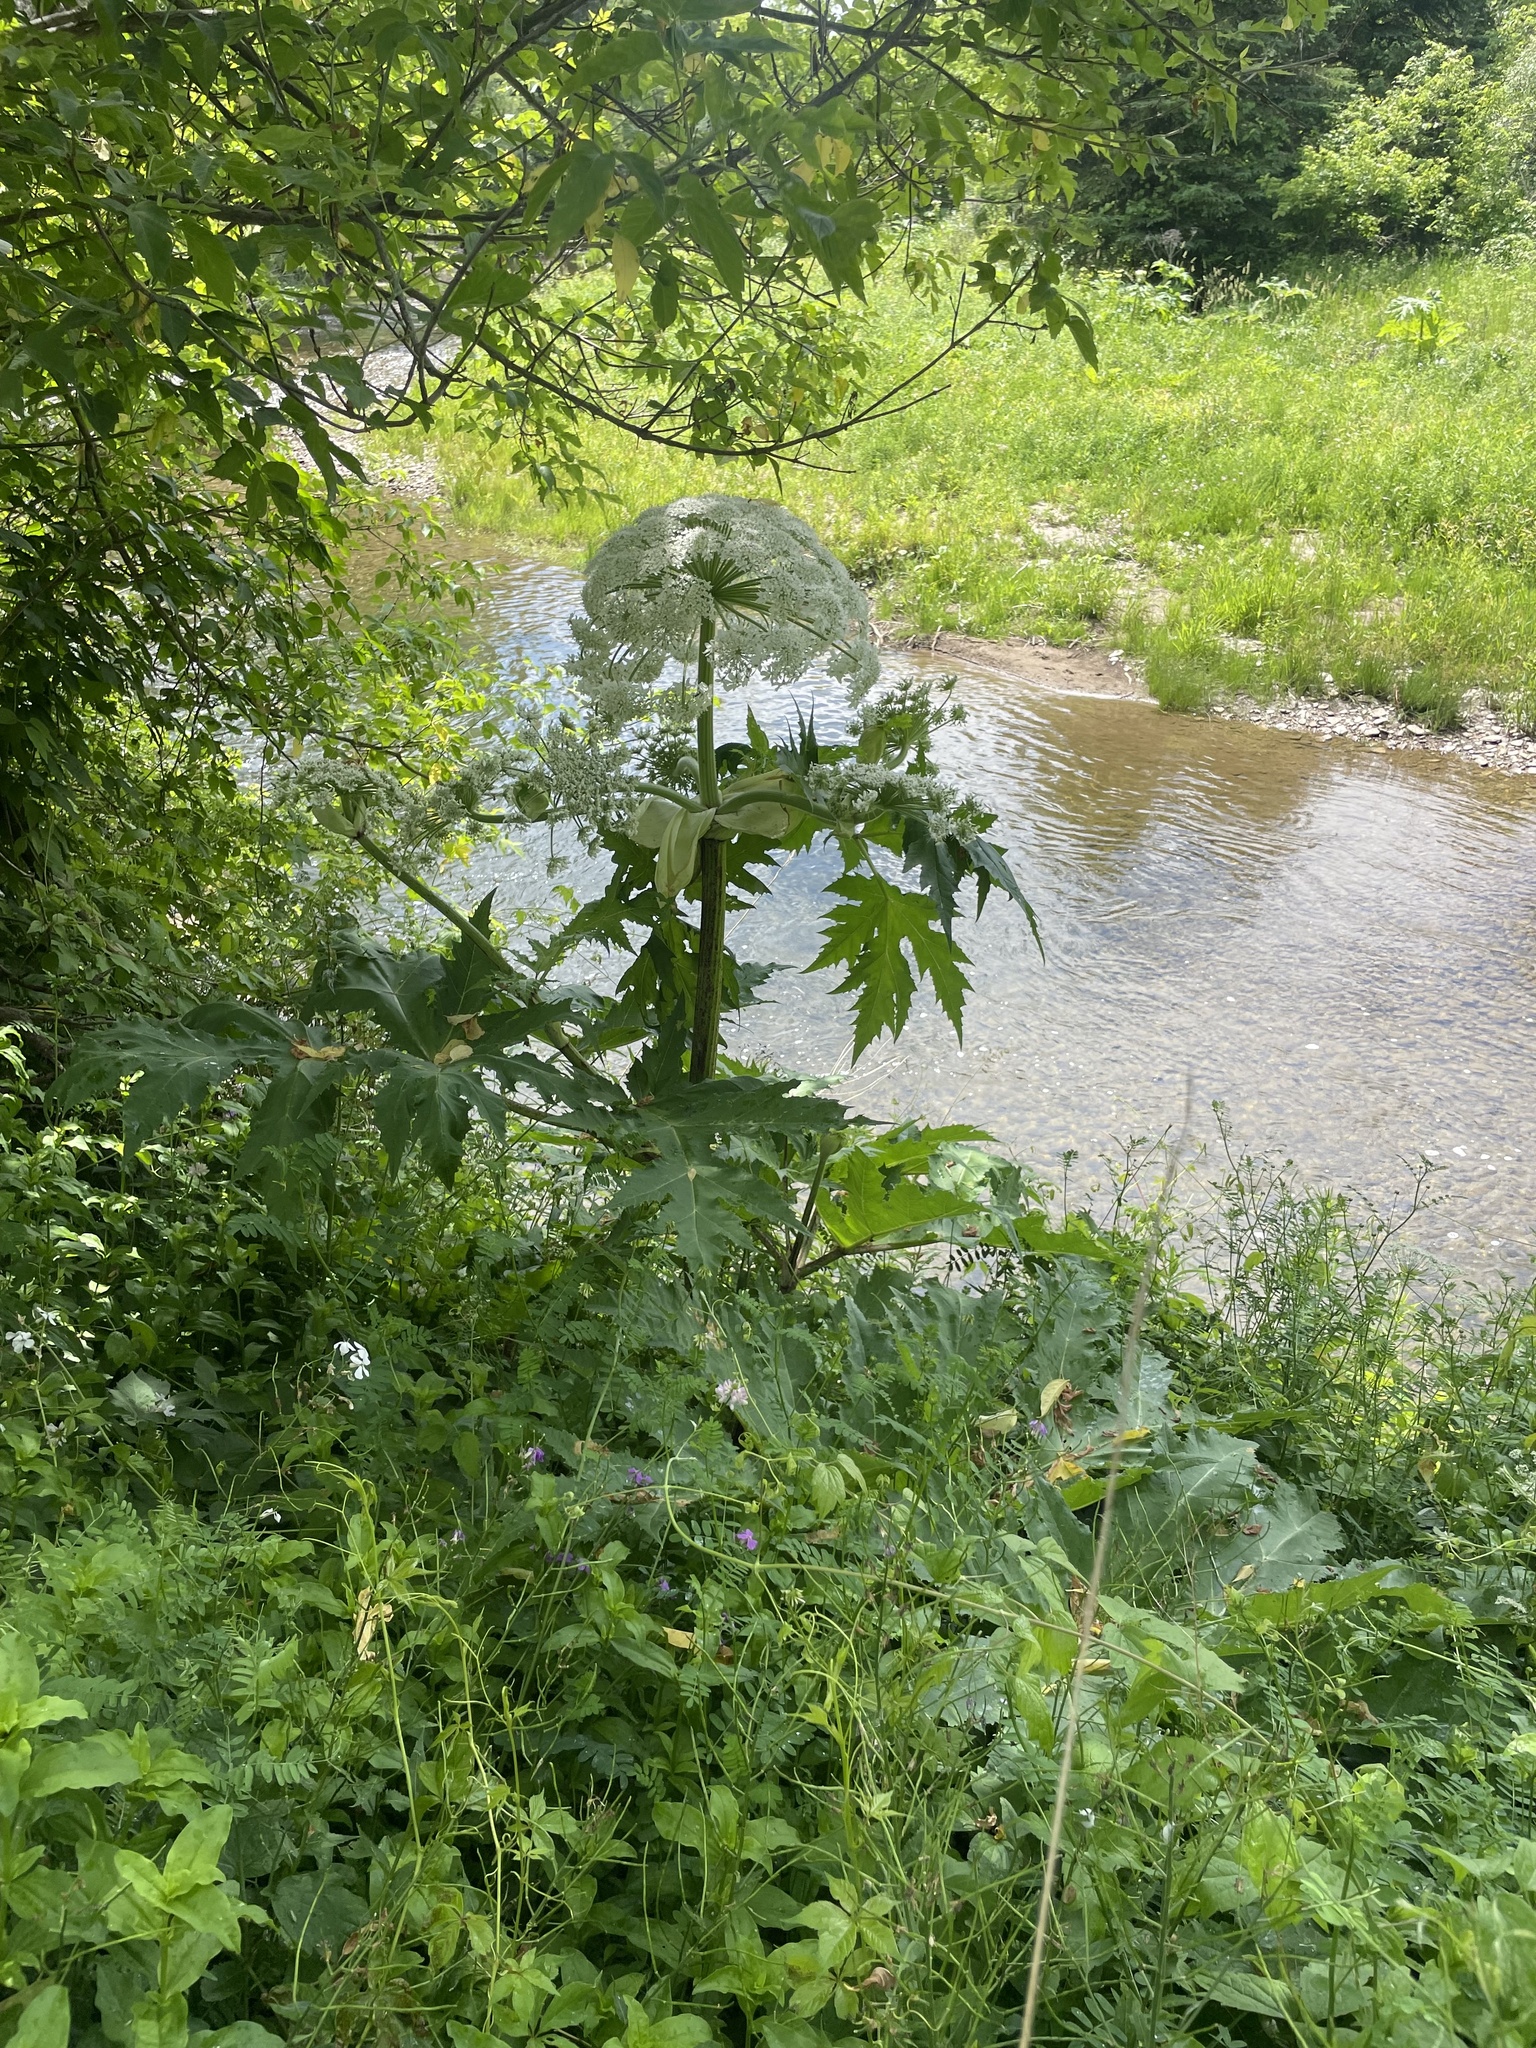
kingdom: Plantae
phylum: Tracheophyta
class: Magnoliopsida
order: Apiales
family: Apiaceae
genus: Heracleum
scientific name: Heracleum mantegazzianum
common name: Giant hogweed
